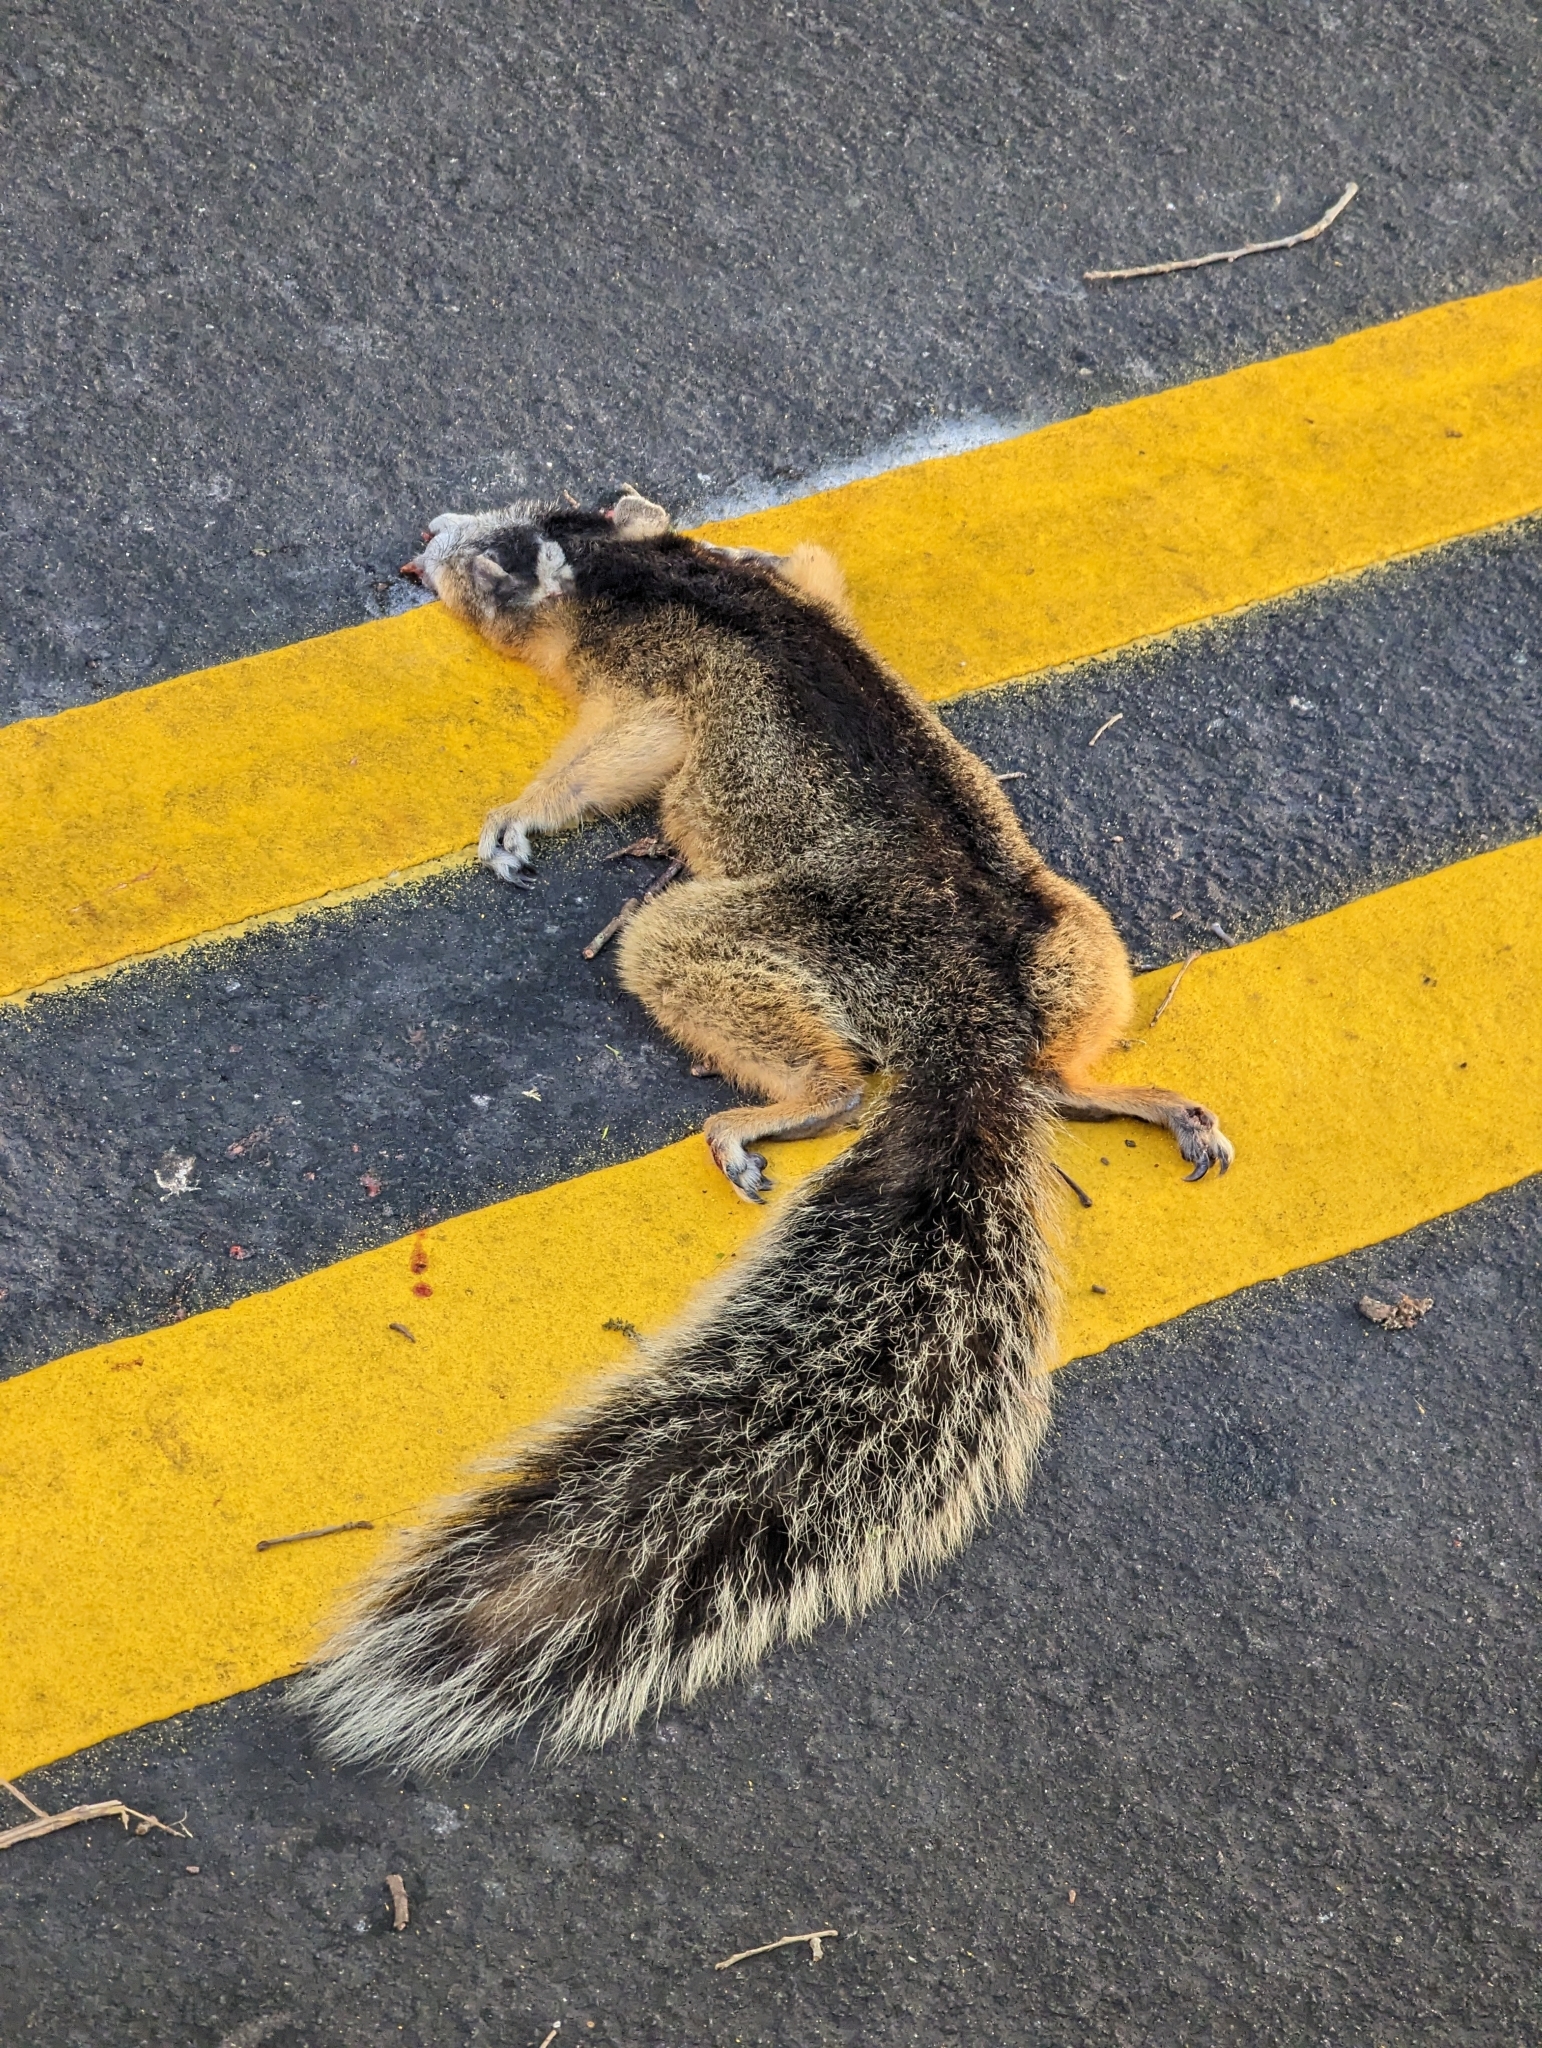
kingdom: Animalia
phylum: Chordata
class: Mammalia
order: Rodentia
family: Sciuridae
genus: Sciurus
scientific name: Sciurus niger
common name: Fox squirrel
